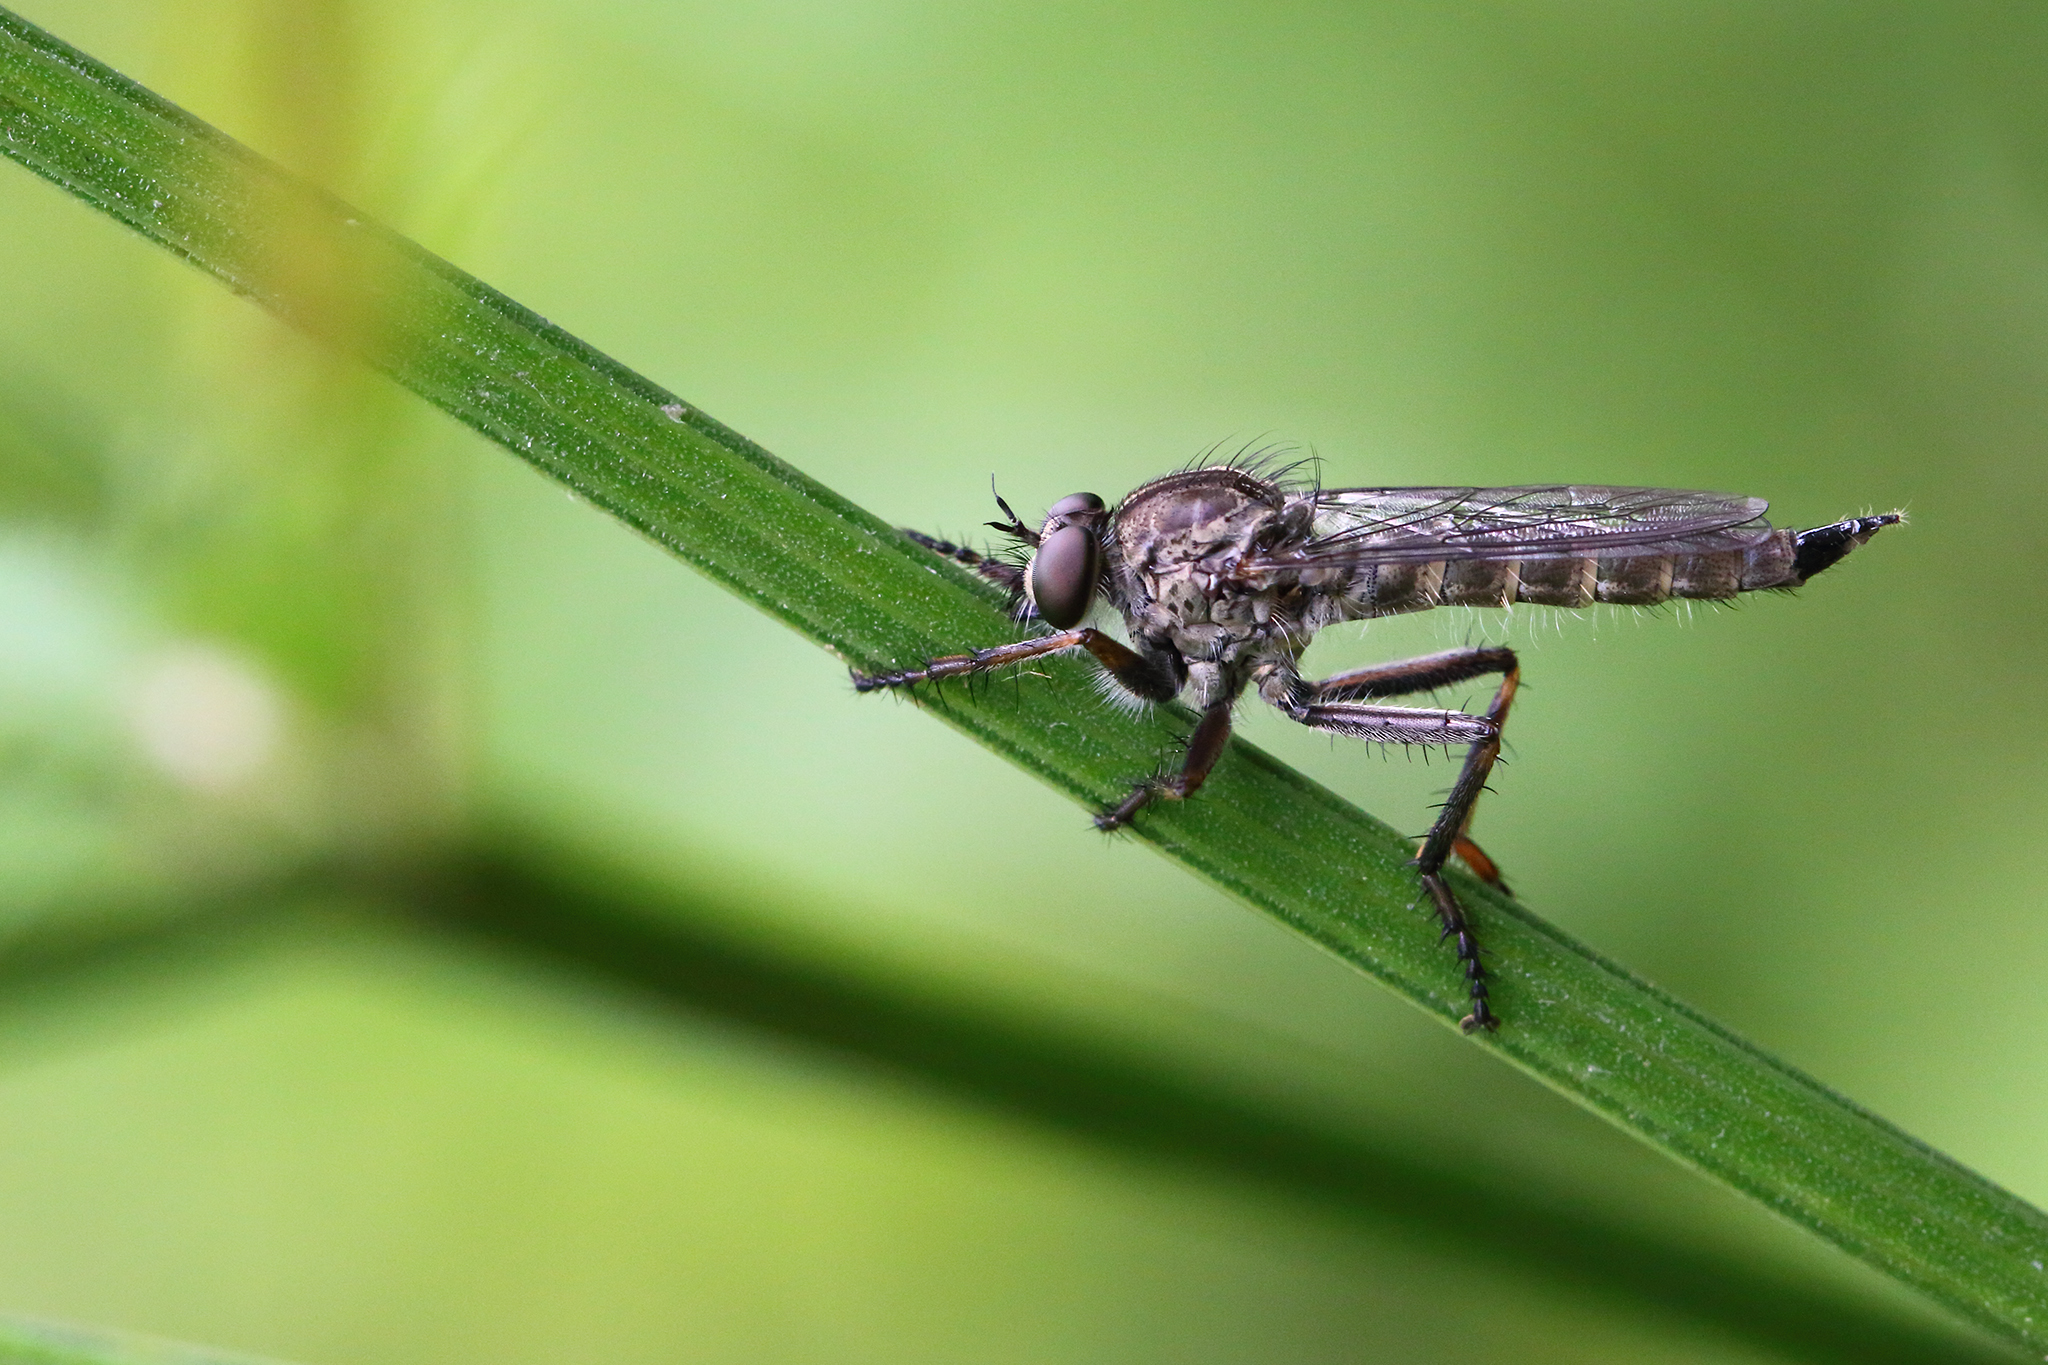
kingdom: Animalia
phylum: Arthropoda
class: Insecta
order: Diptera
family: Asilidae
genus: Machimus
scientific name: Machimus atricapillus
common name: Kite-tailed robberfly
